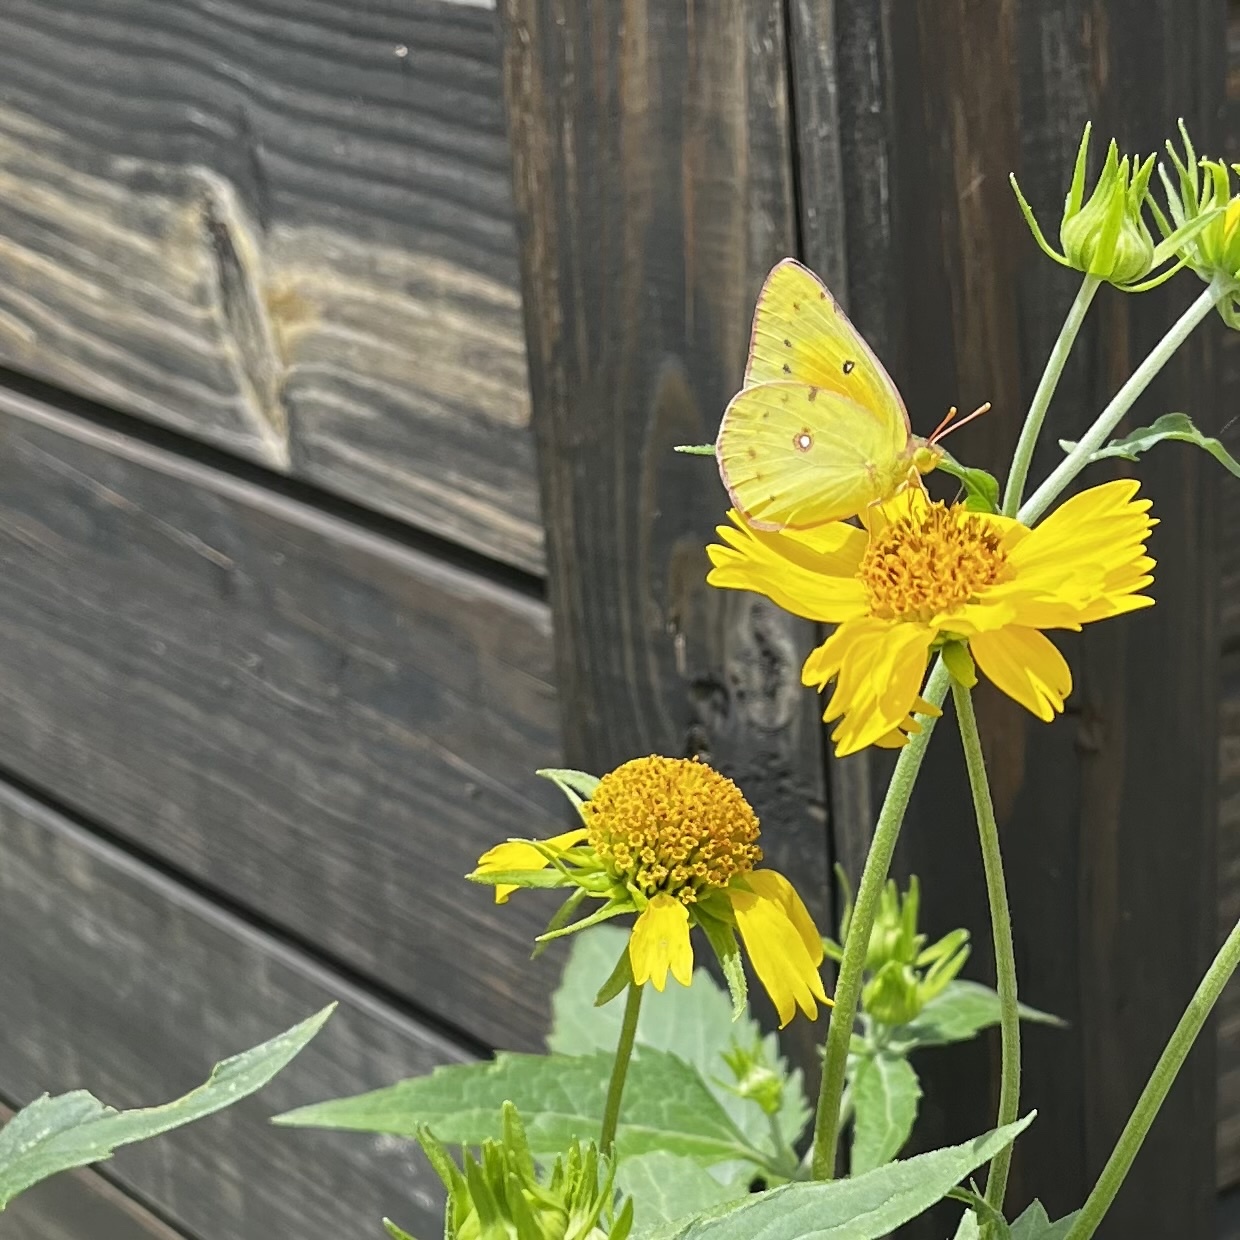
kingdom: Animalia
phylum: Arthropoda
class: Insecta
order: Lepidoptera
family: Pieridae
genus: Colias
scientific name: Colias eurytheme
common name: Alfalfa butterfly
